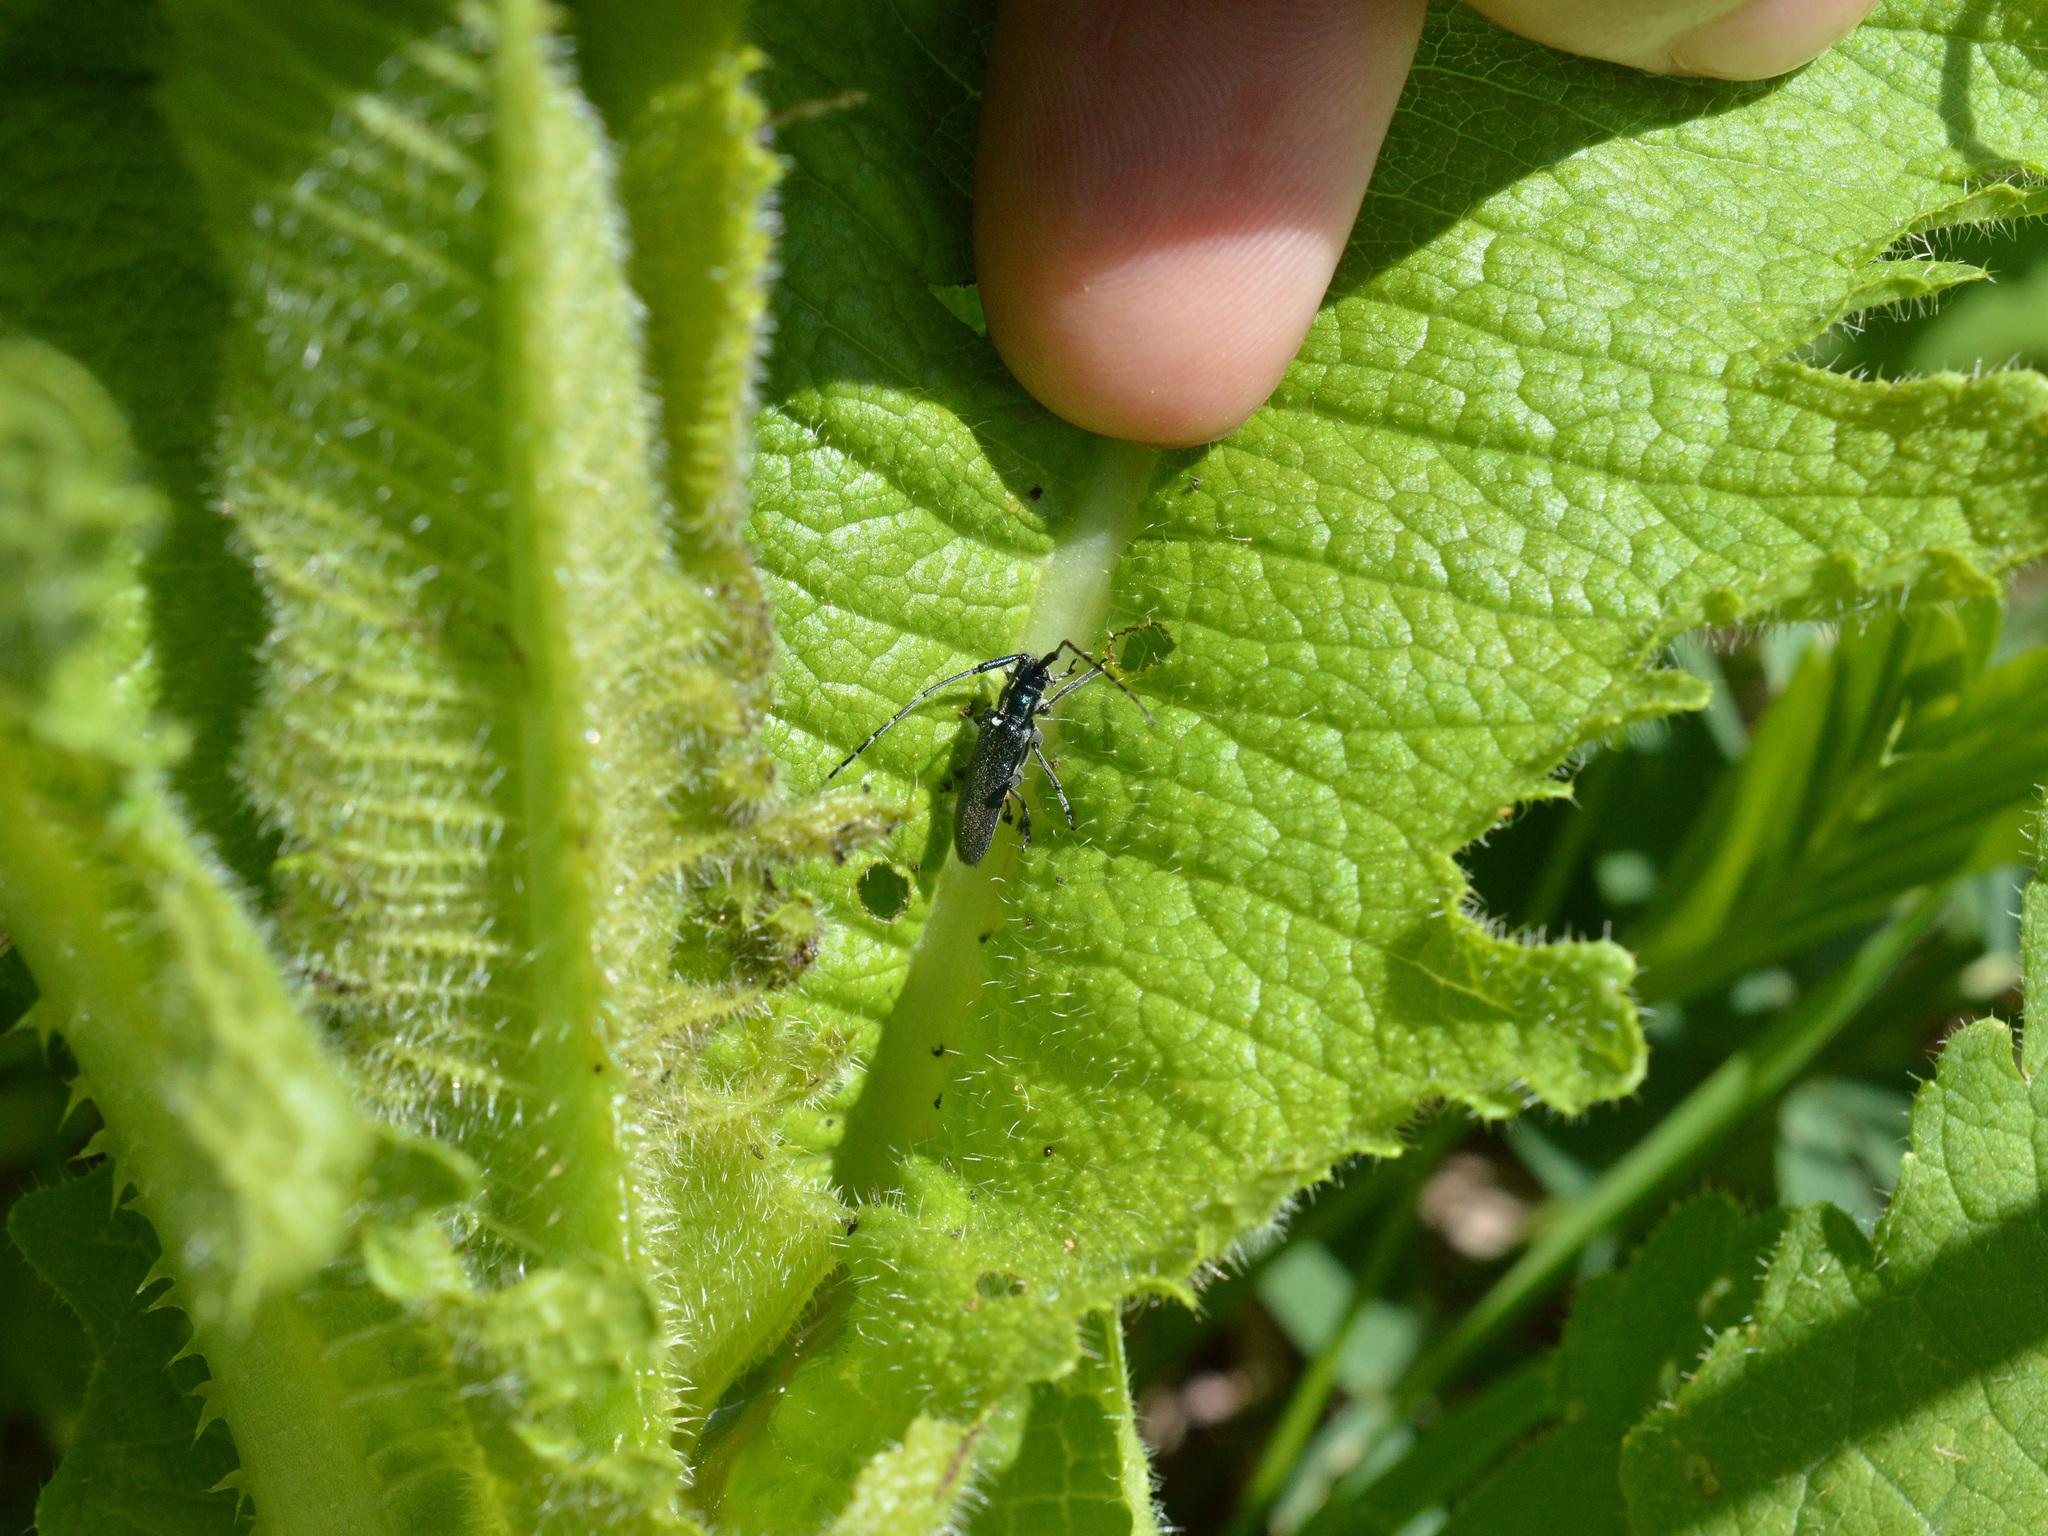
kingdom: Animalia
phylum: Arthropoda
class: Insecta
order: Coleoptera
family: Cerambycidae
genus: Agapanthia
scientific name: Agapanthia osmanlis
